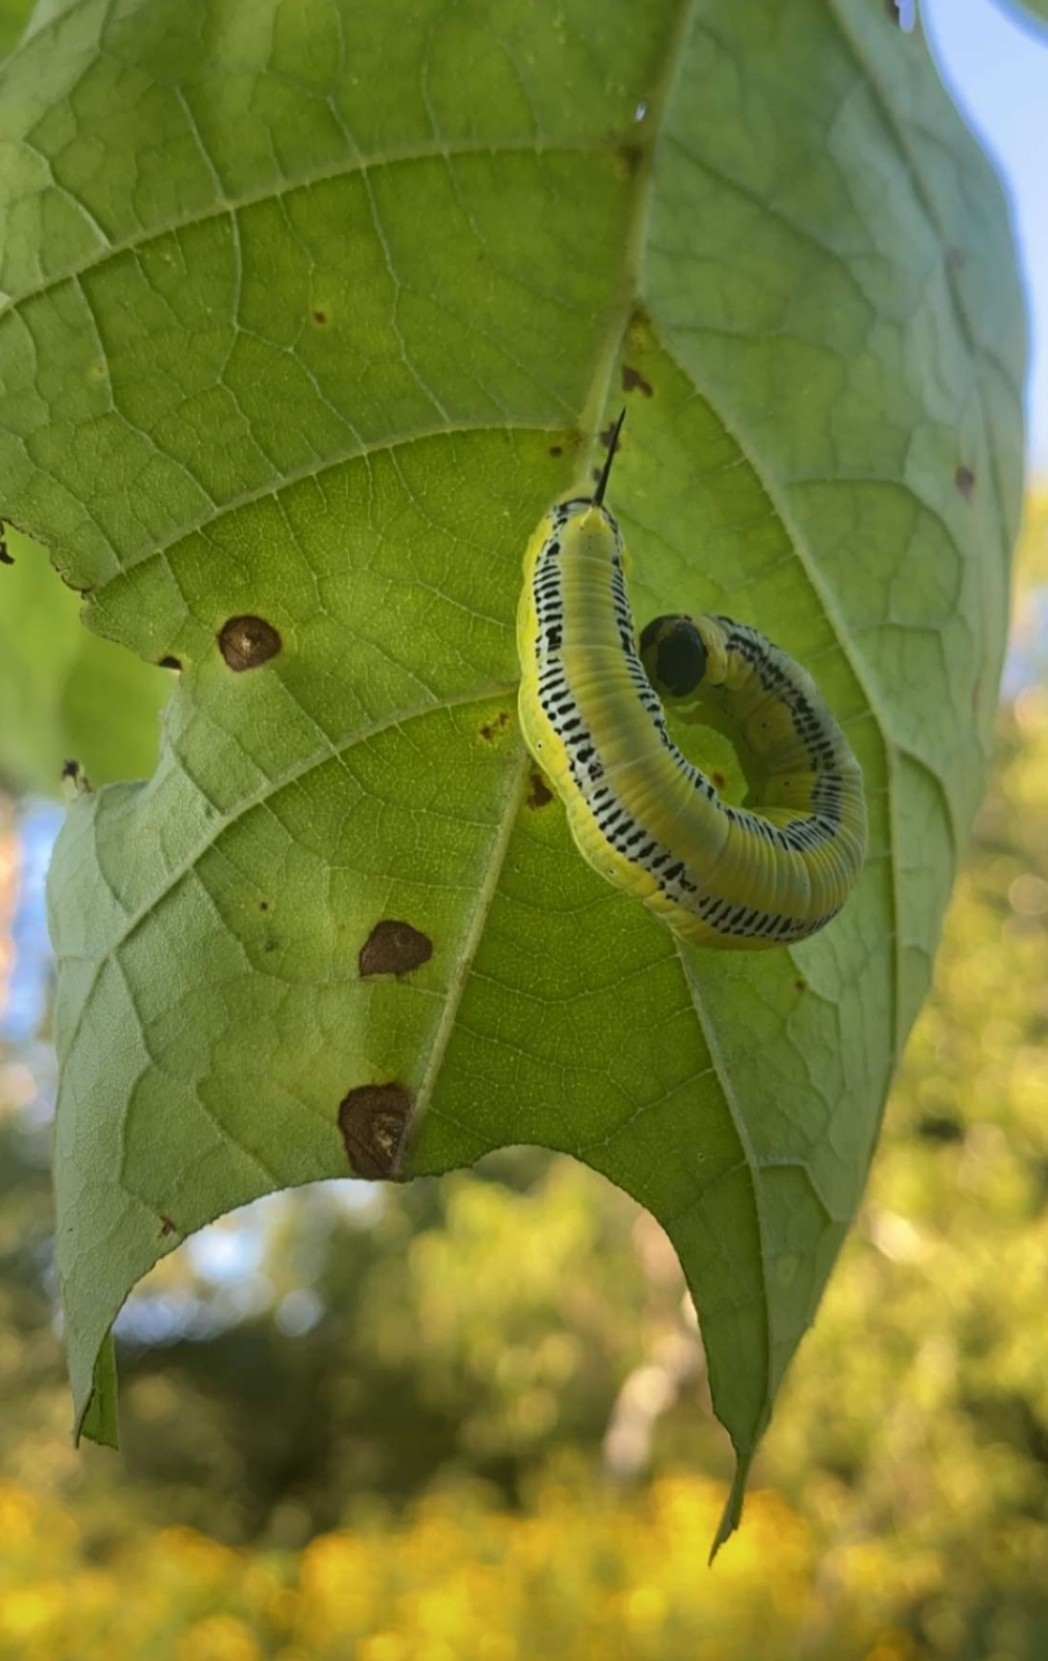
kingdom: Animalia
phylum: Arthropoda
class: Insecta
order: Lepidoptera
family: Sphingidae
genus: Ceratomia
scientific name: Ceratomia catalpae
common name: Catalpa hornworm
